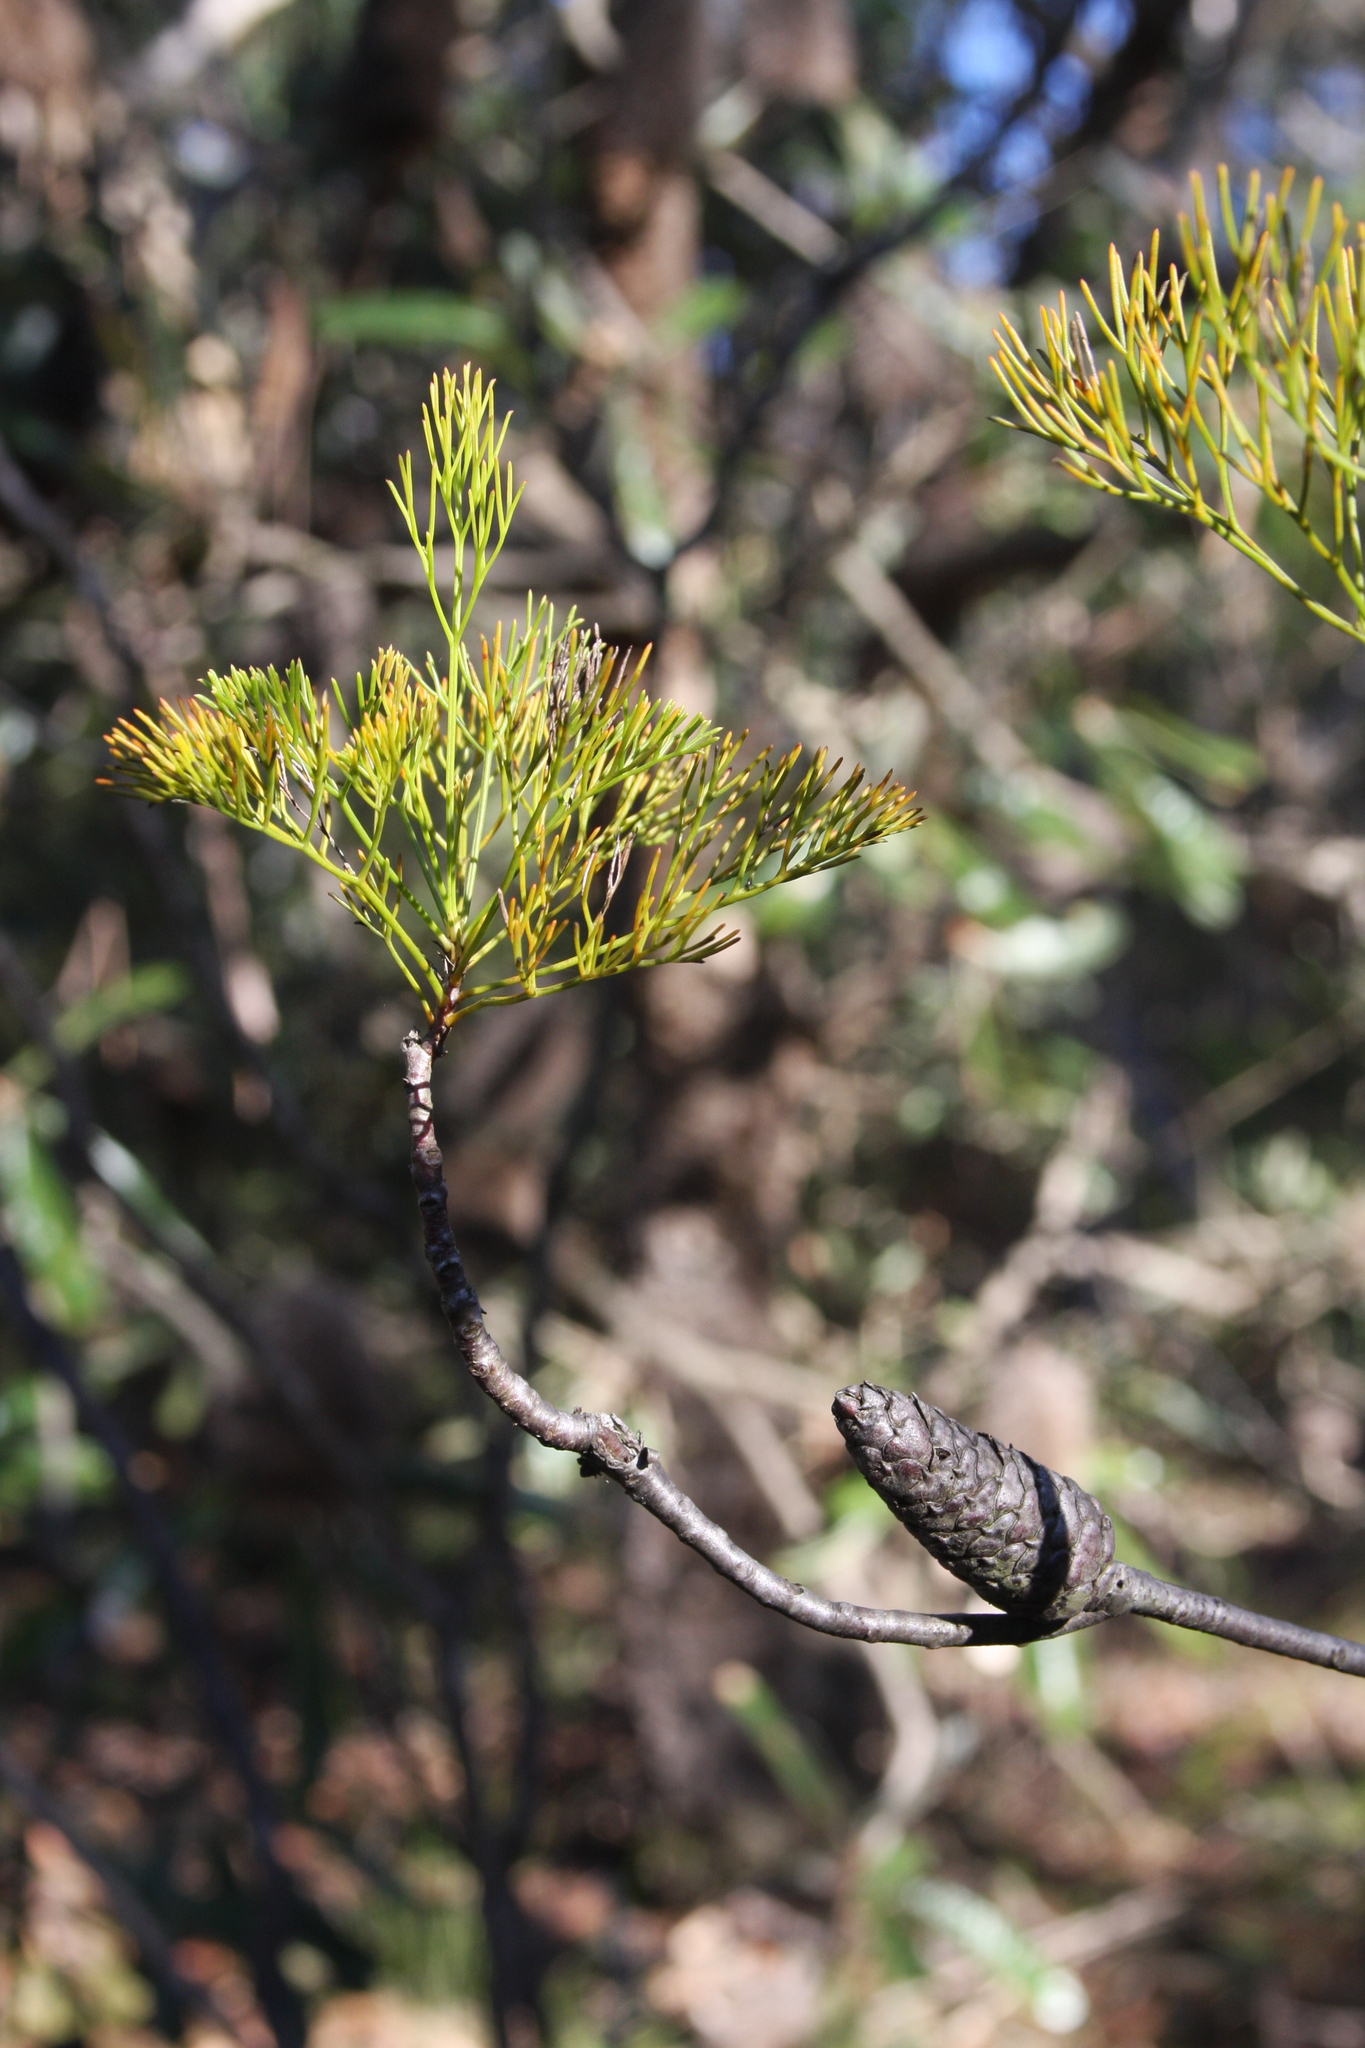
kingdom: Plantae
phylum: Tracheophyta
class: Magnoliopsida
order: Proteales
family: Proteaceae
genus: Petrophile
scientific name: Petrophile pulchella
